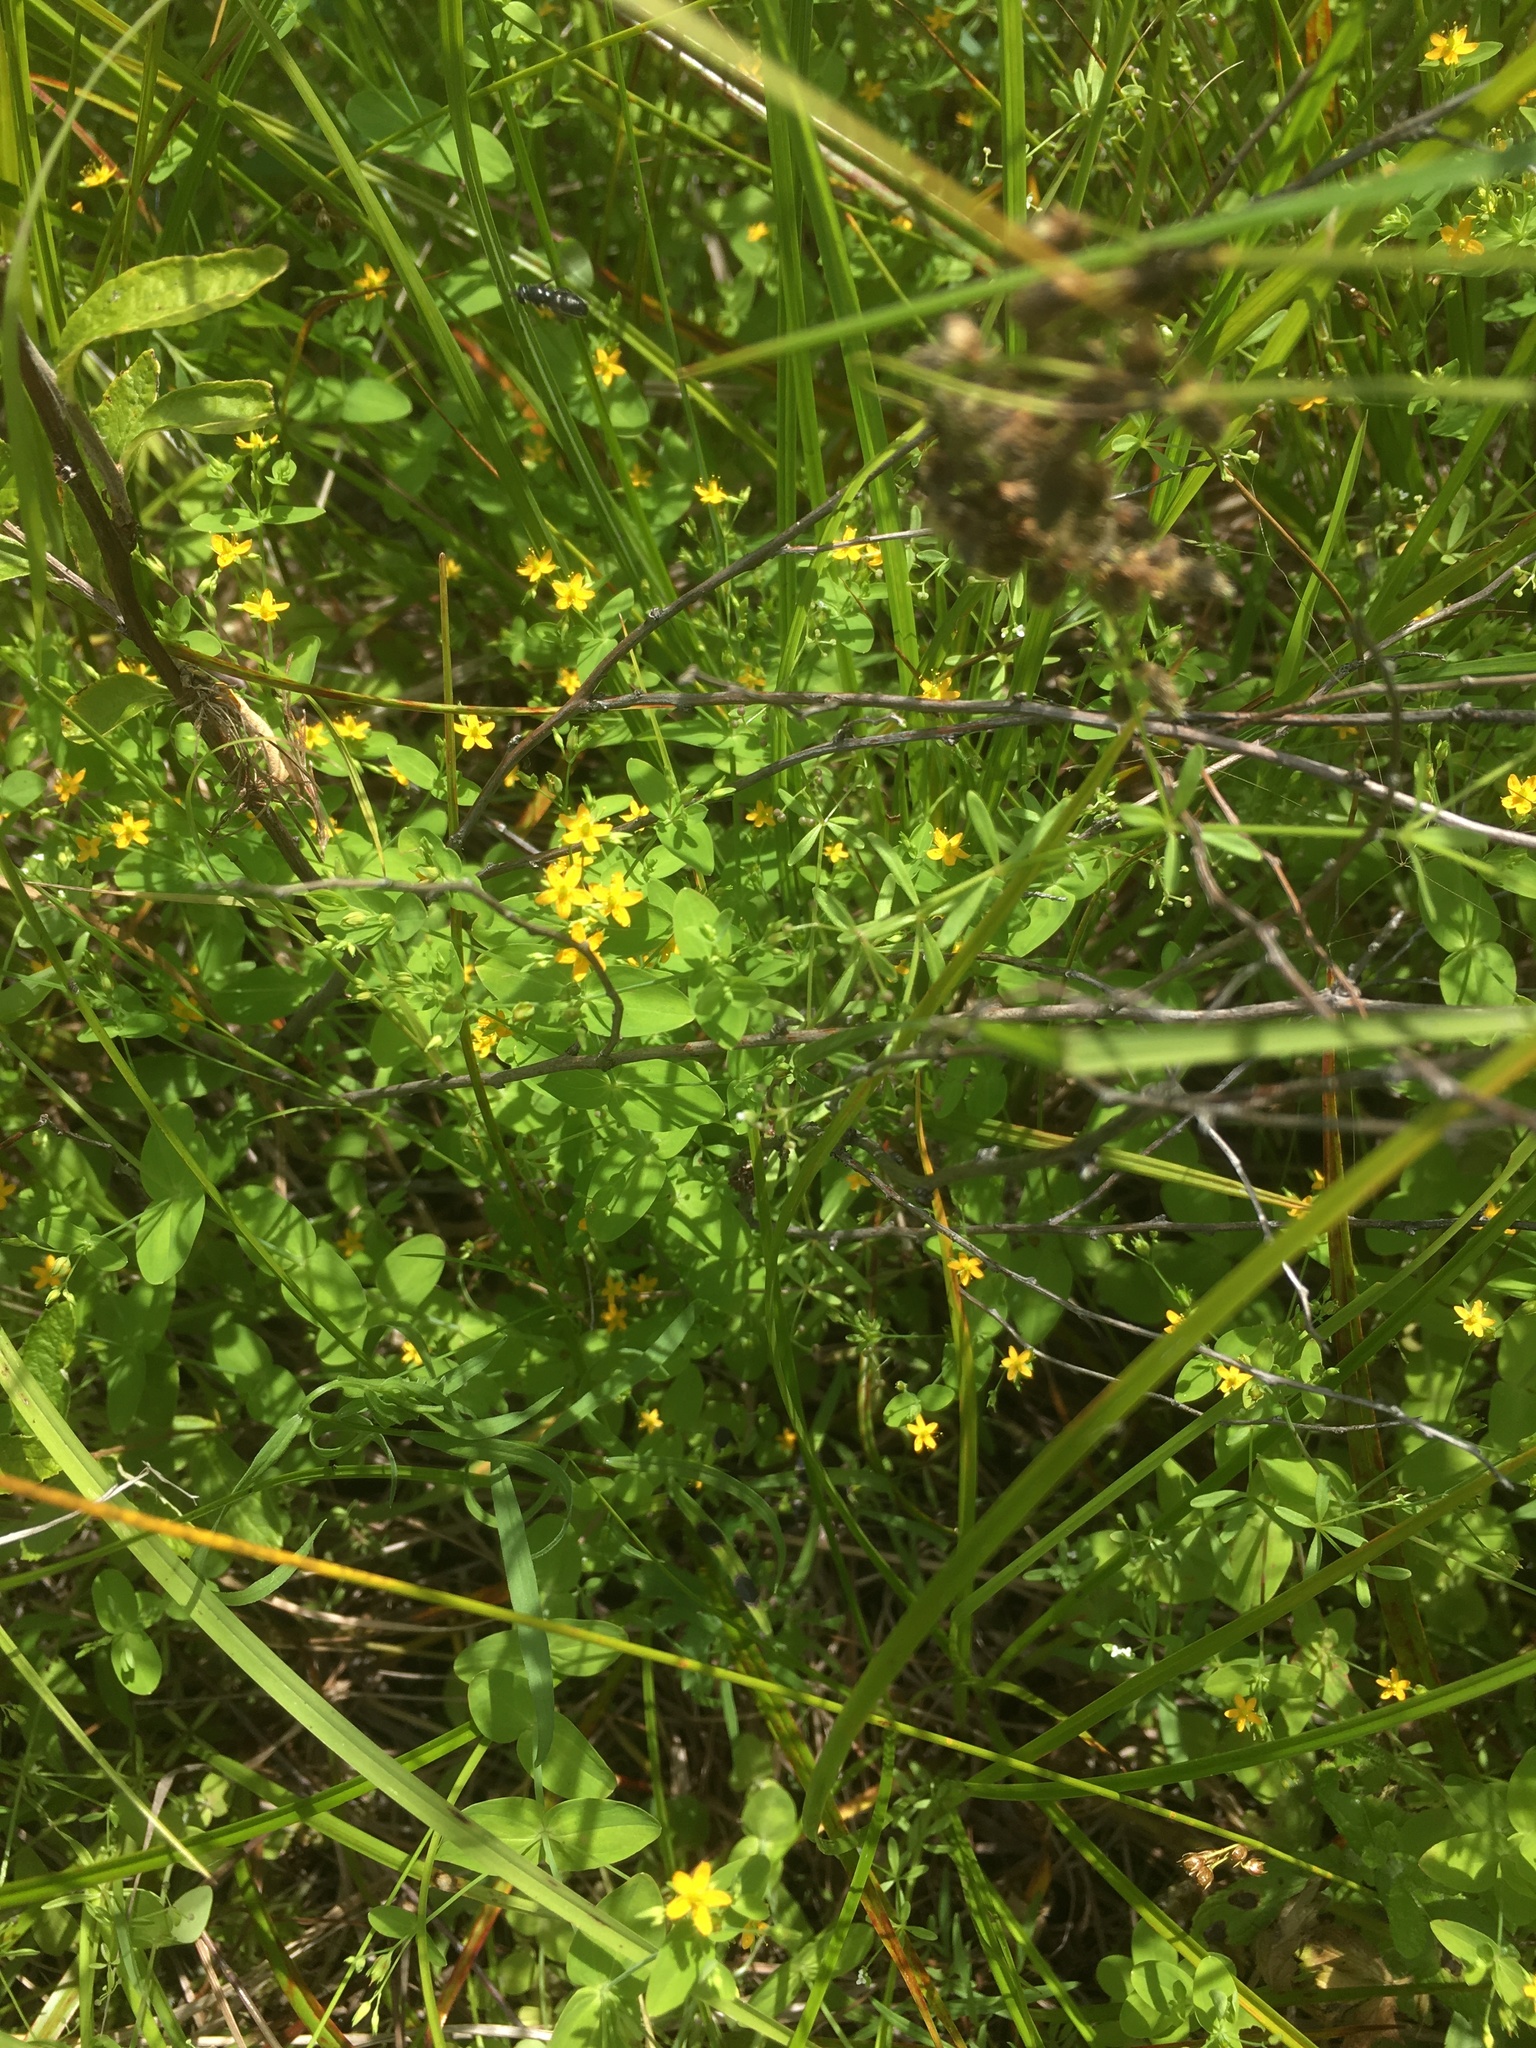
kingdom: Plantae
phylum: Tracheophyta
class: Magnoliopsida
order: Malpighiales
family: Hypericaceae
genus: Hypericum
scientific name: Hypericum mutilum
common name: Dwarf st. john's-wort
